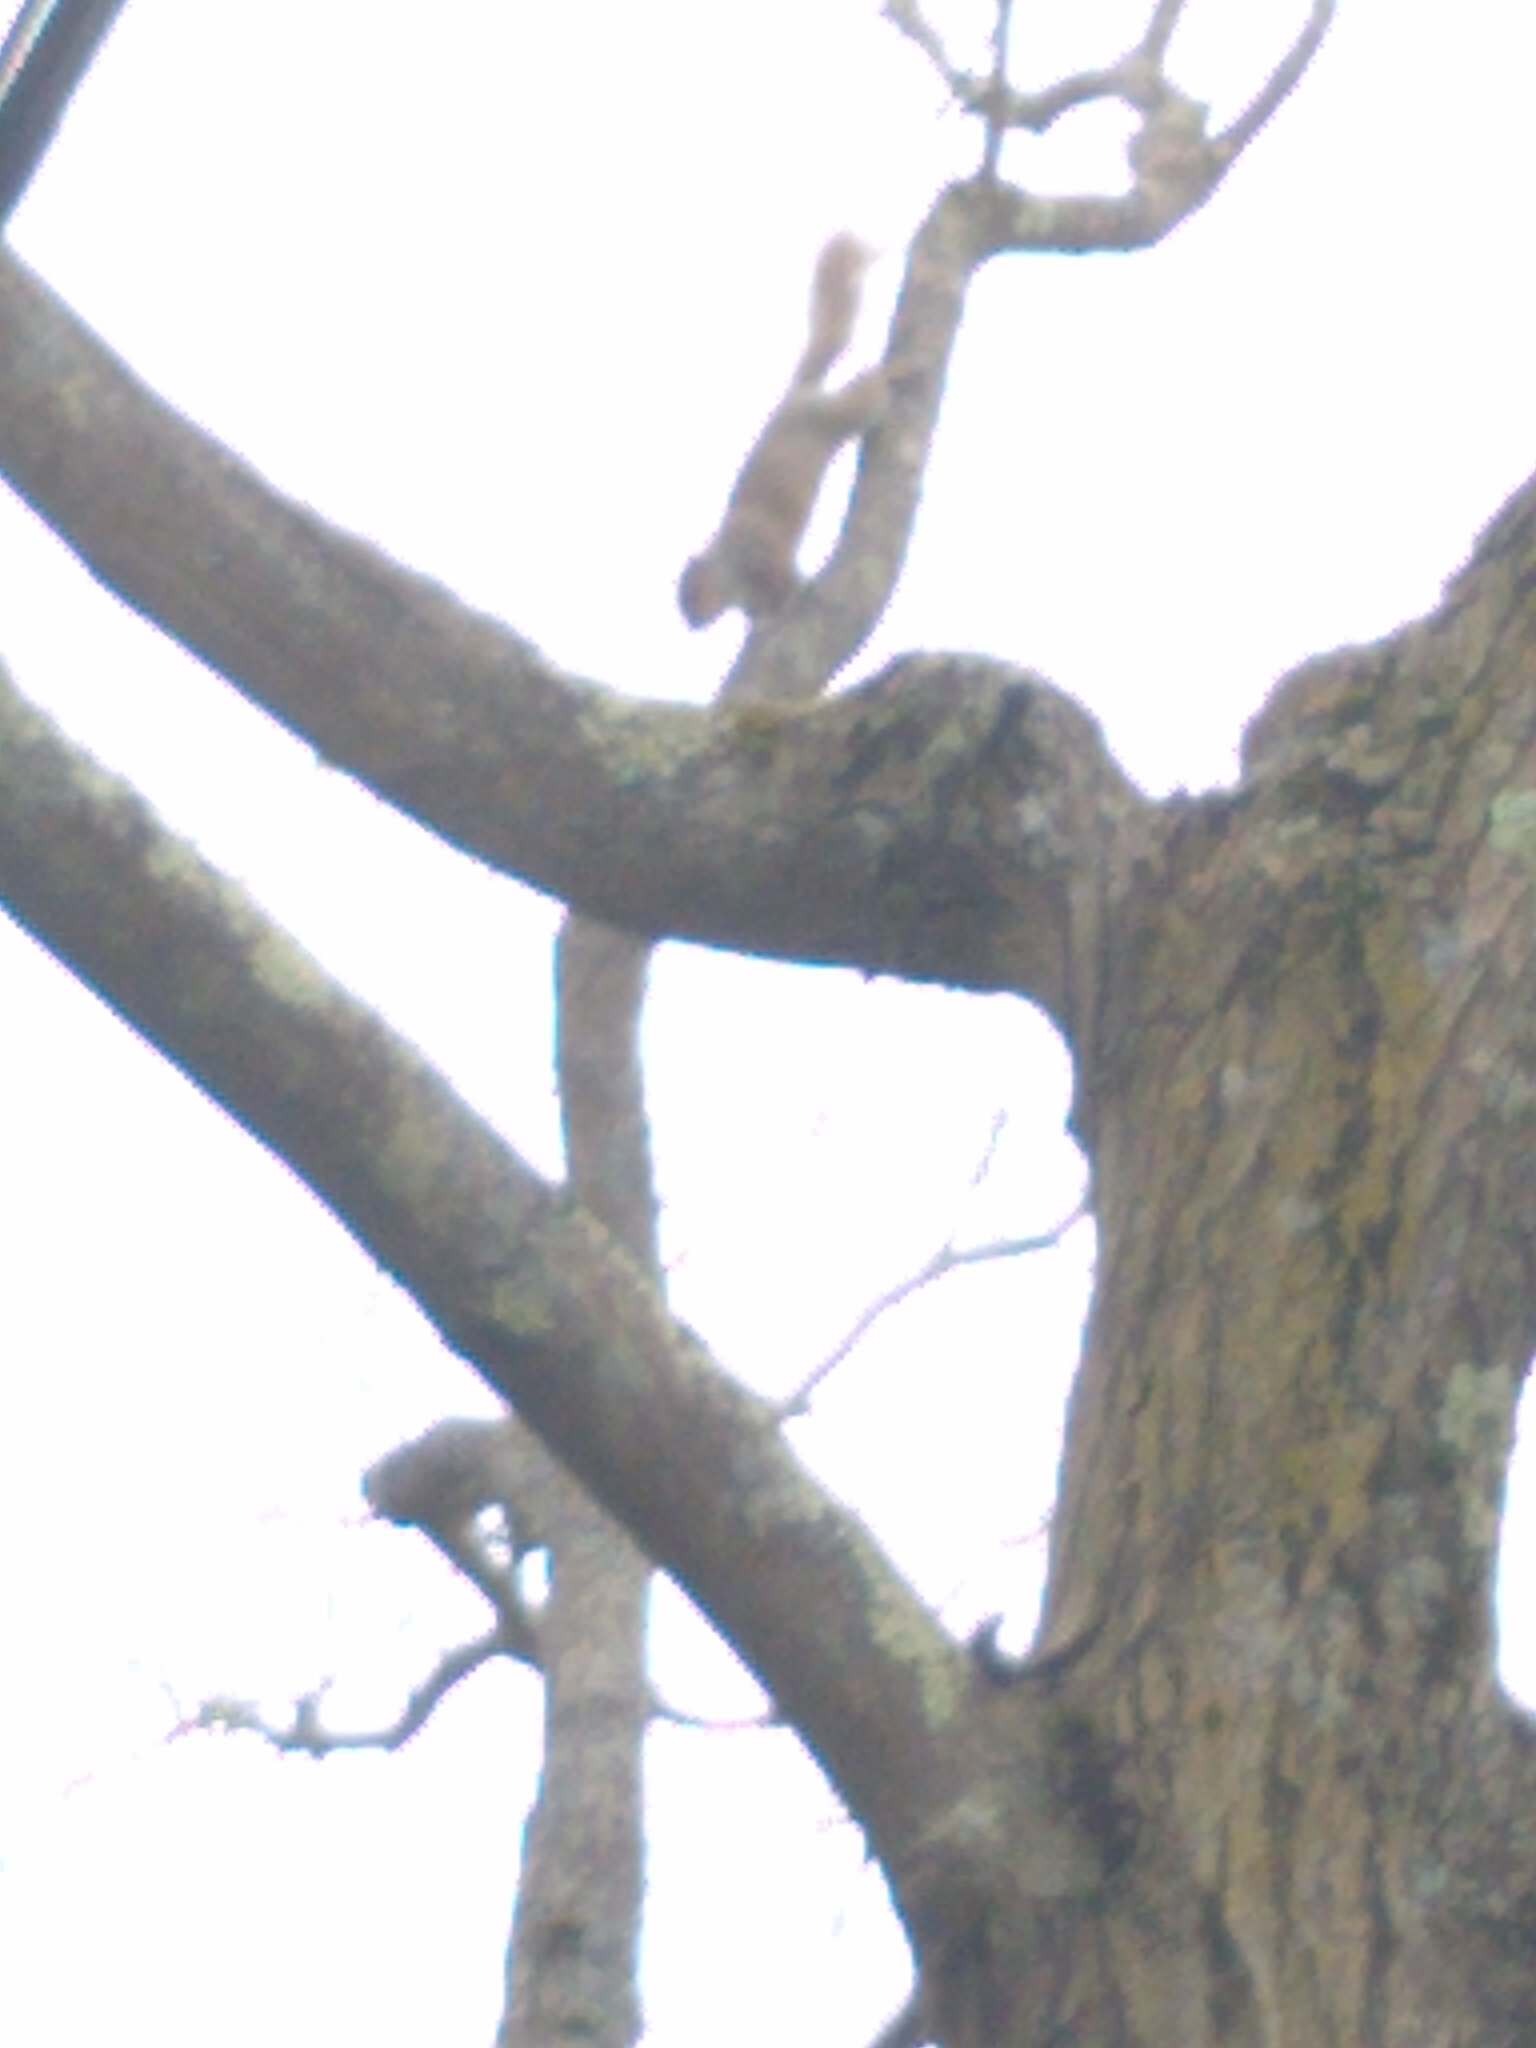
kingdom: Animalia
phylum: Chordata
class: Mammalia
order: Rodentia
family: Sciuridae
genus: Sciurus
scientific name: Sciurus carolinensis
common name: Eastern gray squirrel
